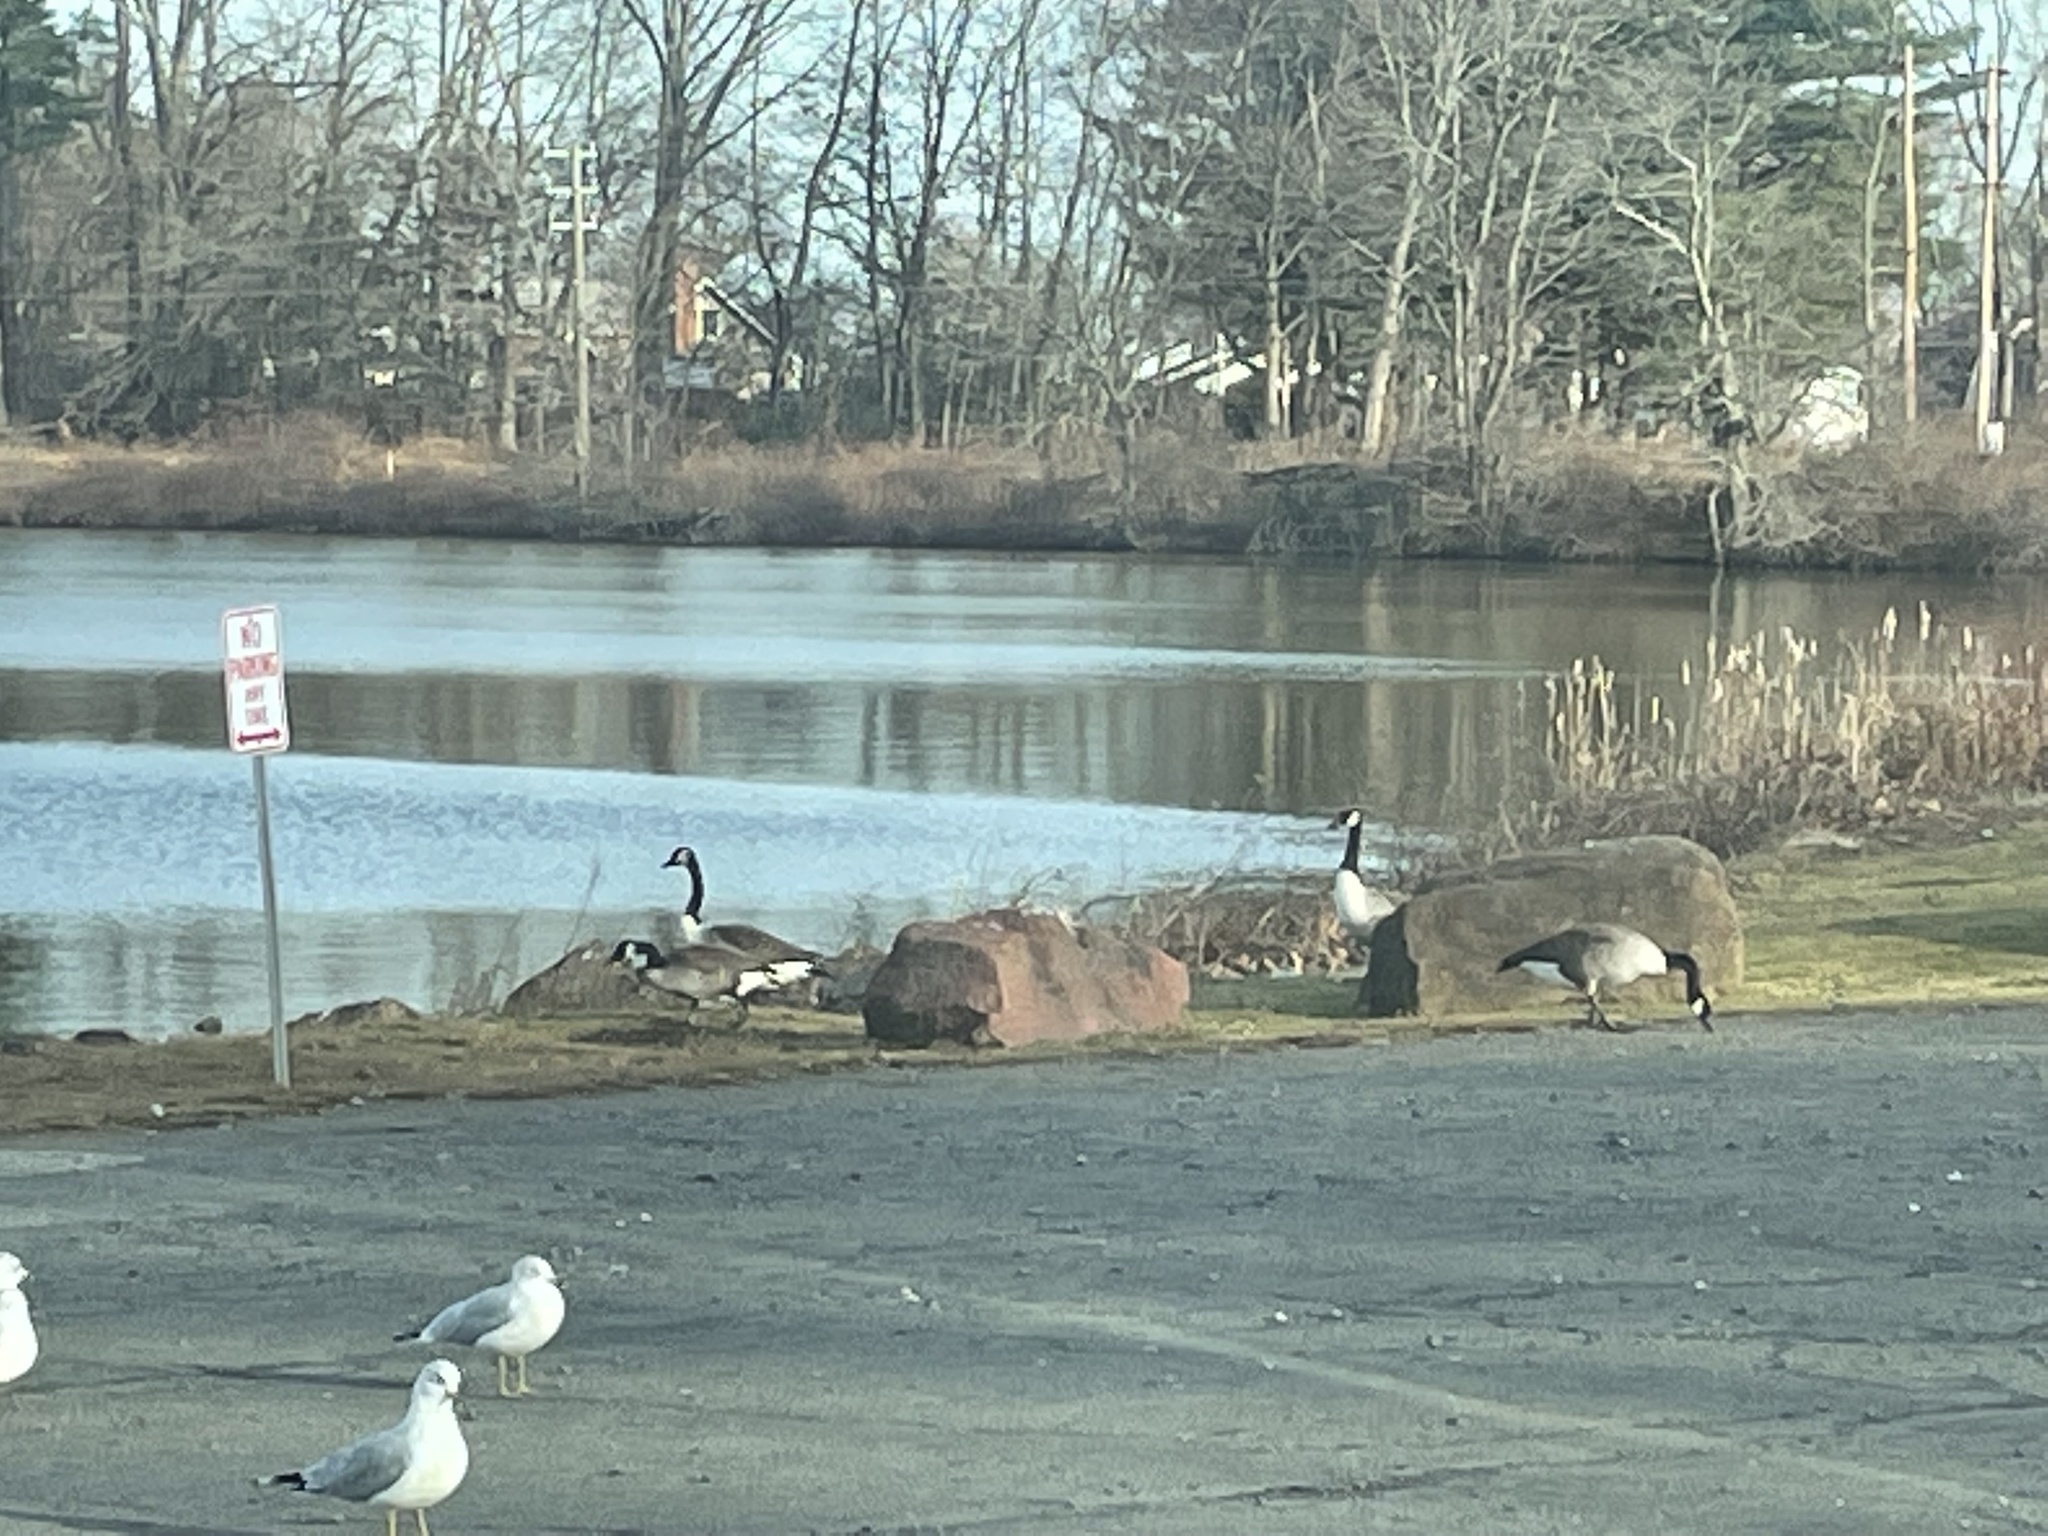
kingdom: Animalia
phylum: Chordata
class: Aves
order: Anseriformes
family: Anatidae
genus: Branta
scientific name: Branta canadensis
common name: Canada goose
